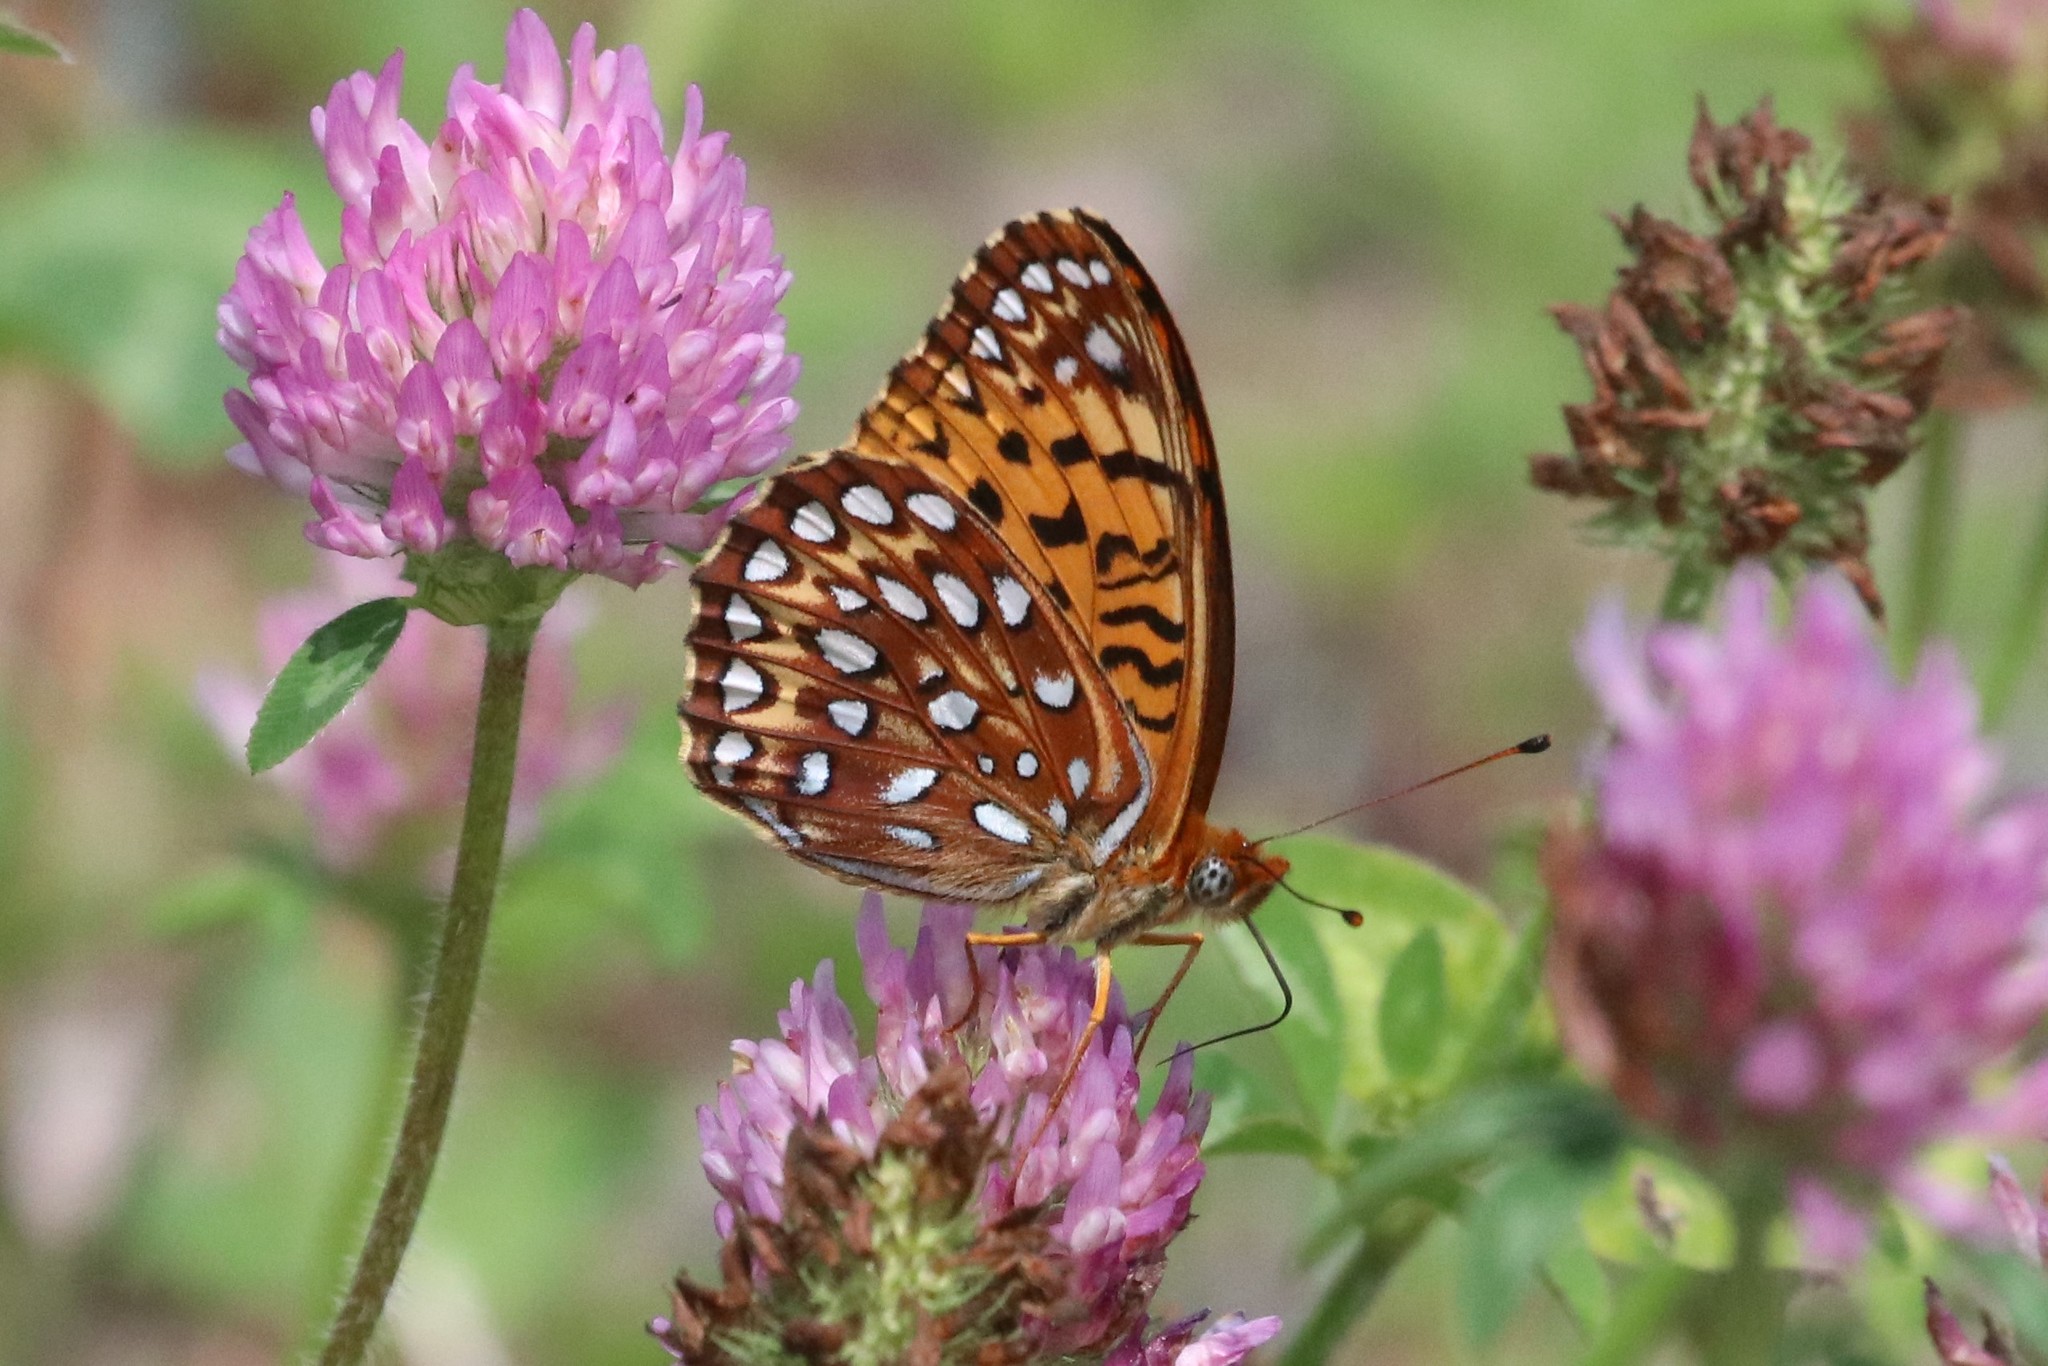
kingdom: Animalia
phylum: Arthropoda
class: Insecta
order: Lepidoptera
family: Nymphalidae
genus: Speyeria
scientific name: Speyeria atlantis
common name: Atlantis fritillary
